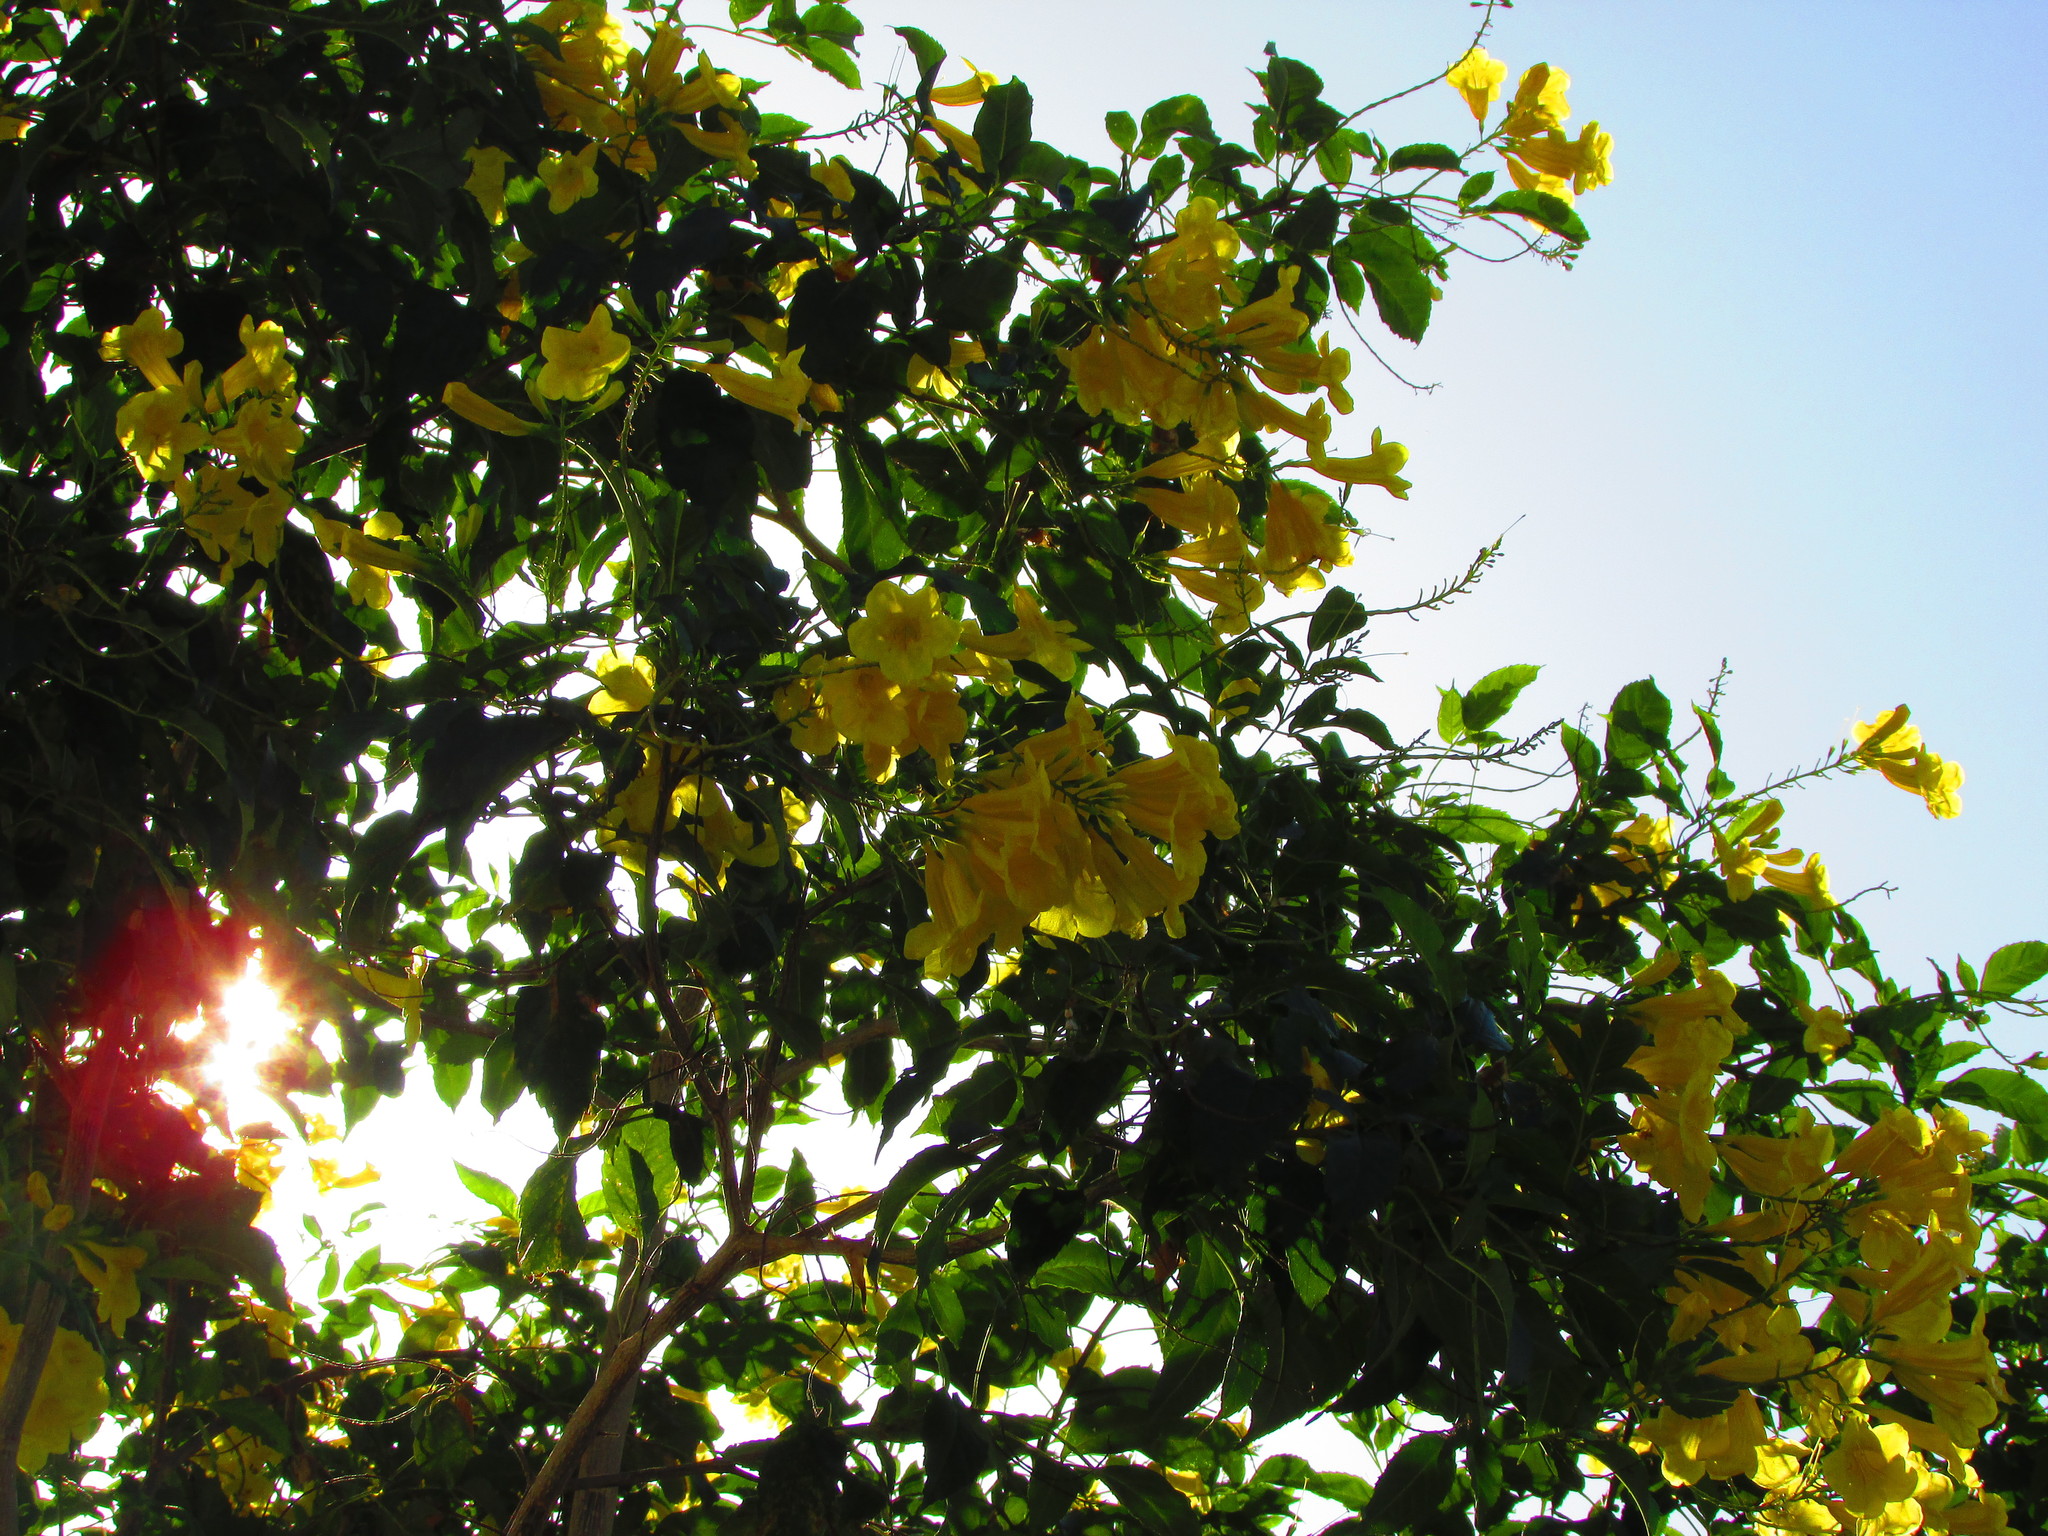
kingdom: Plantae
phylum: Tracheophyta
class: Magnoliopsida
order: Lamiales
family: Bignoniaceae
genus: Tecoma
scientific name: Tecoma stans
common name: Yellow trumpetbush
